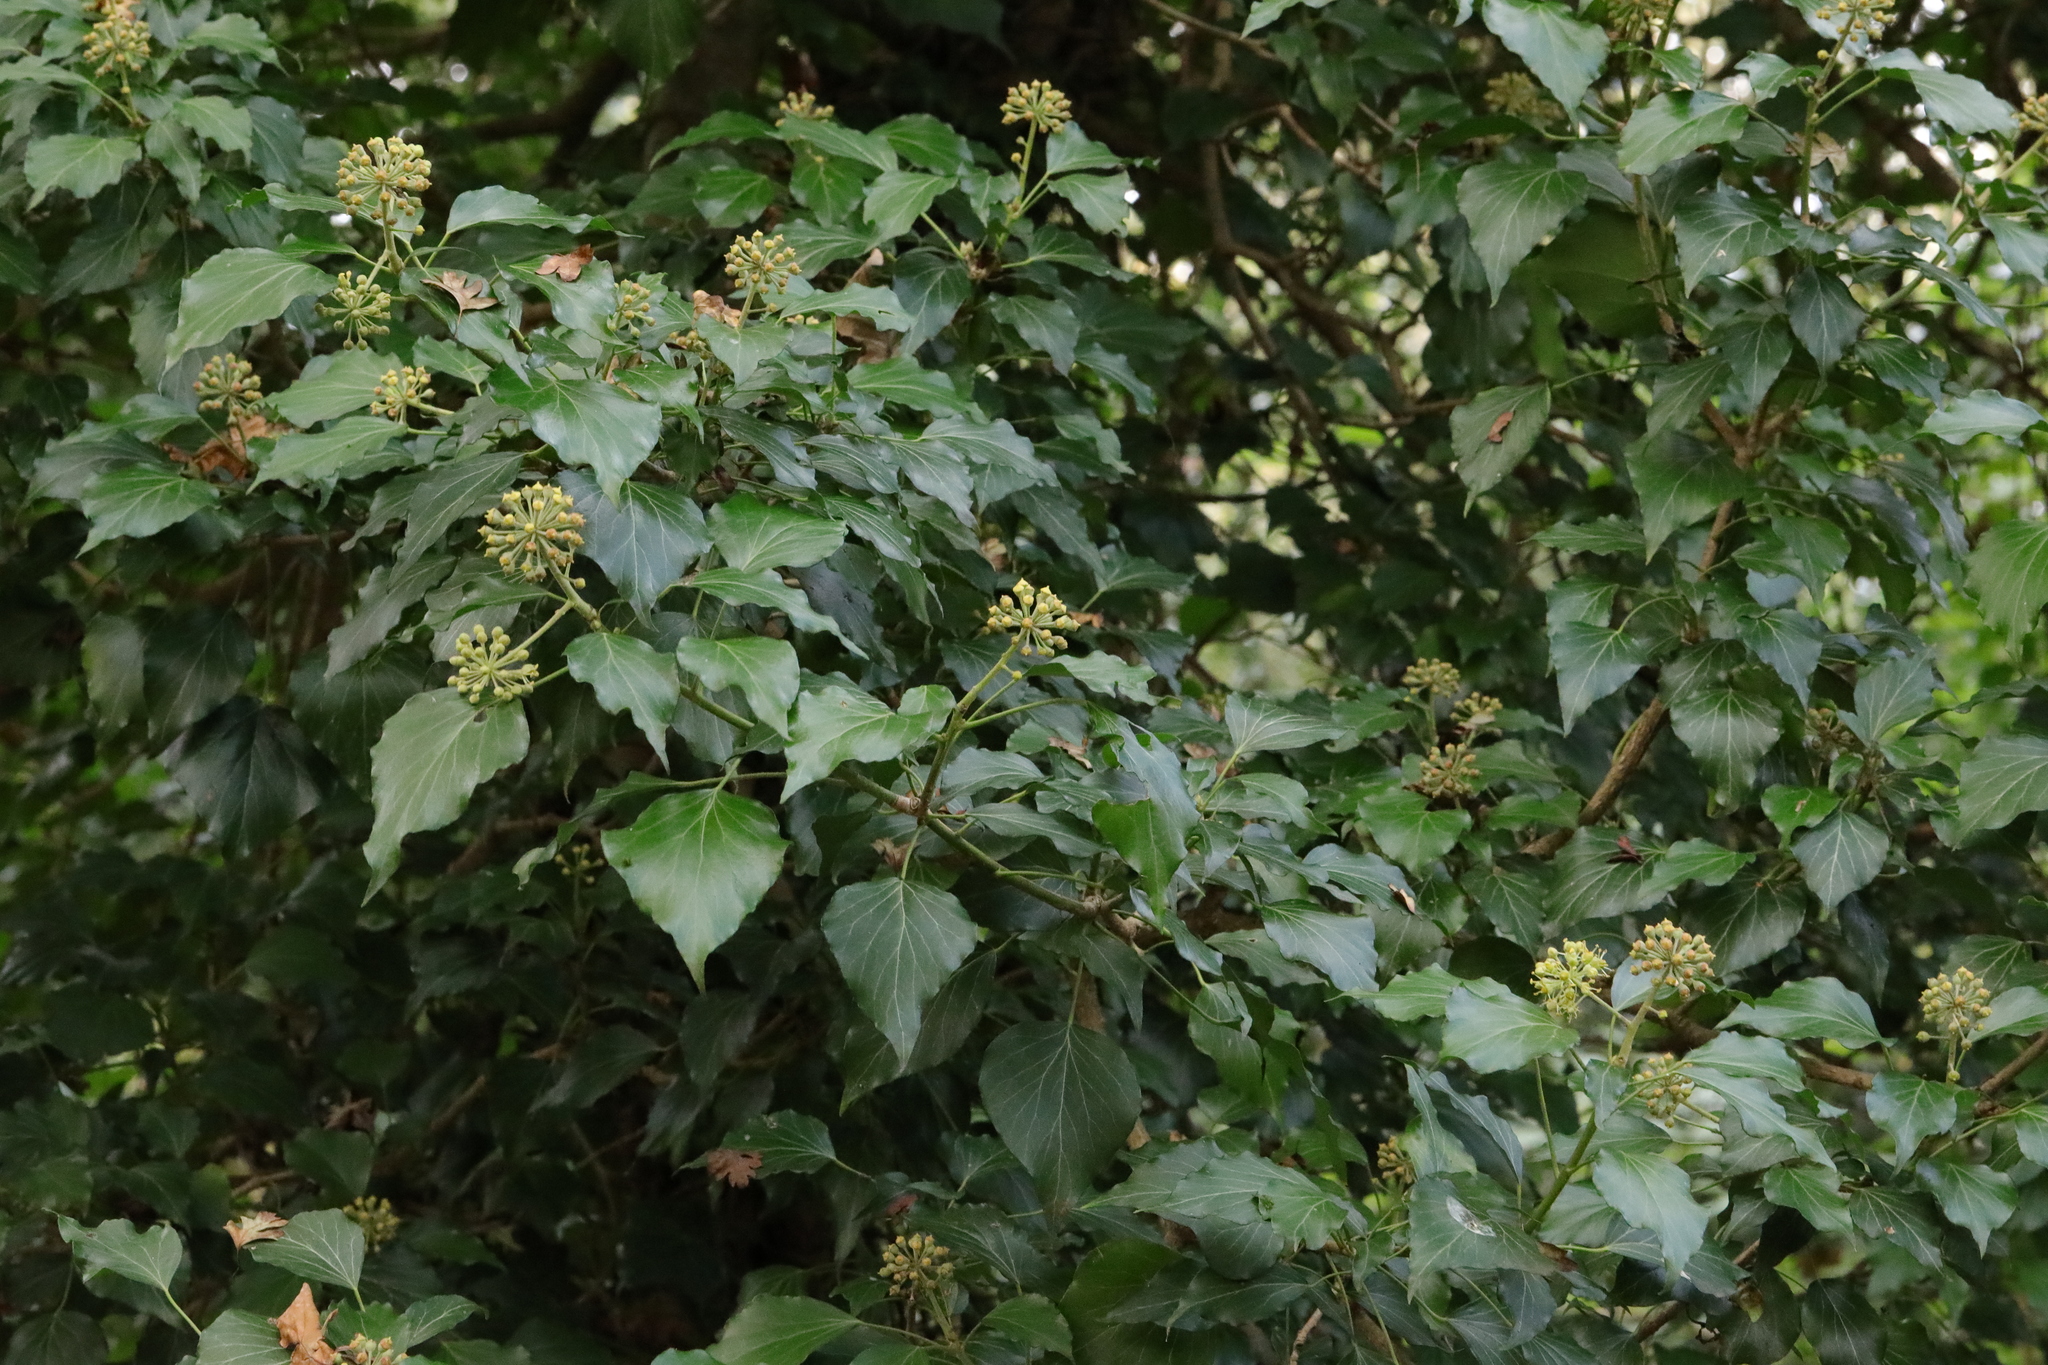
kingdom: Plantae
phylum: Tracheophyta
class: Magnoliopsida
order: Apiales
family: Araliaceae
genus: Hedera
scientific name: Hedera helix
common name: Ivy
